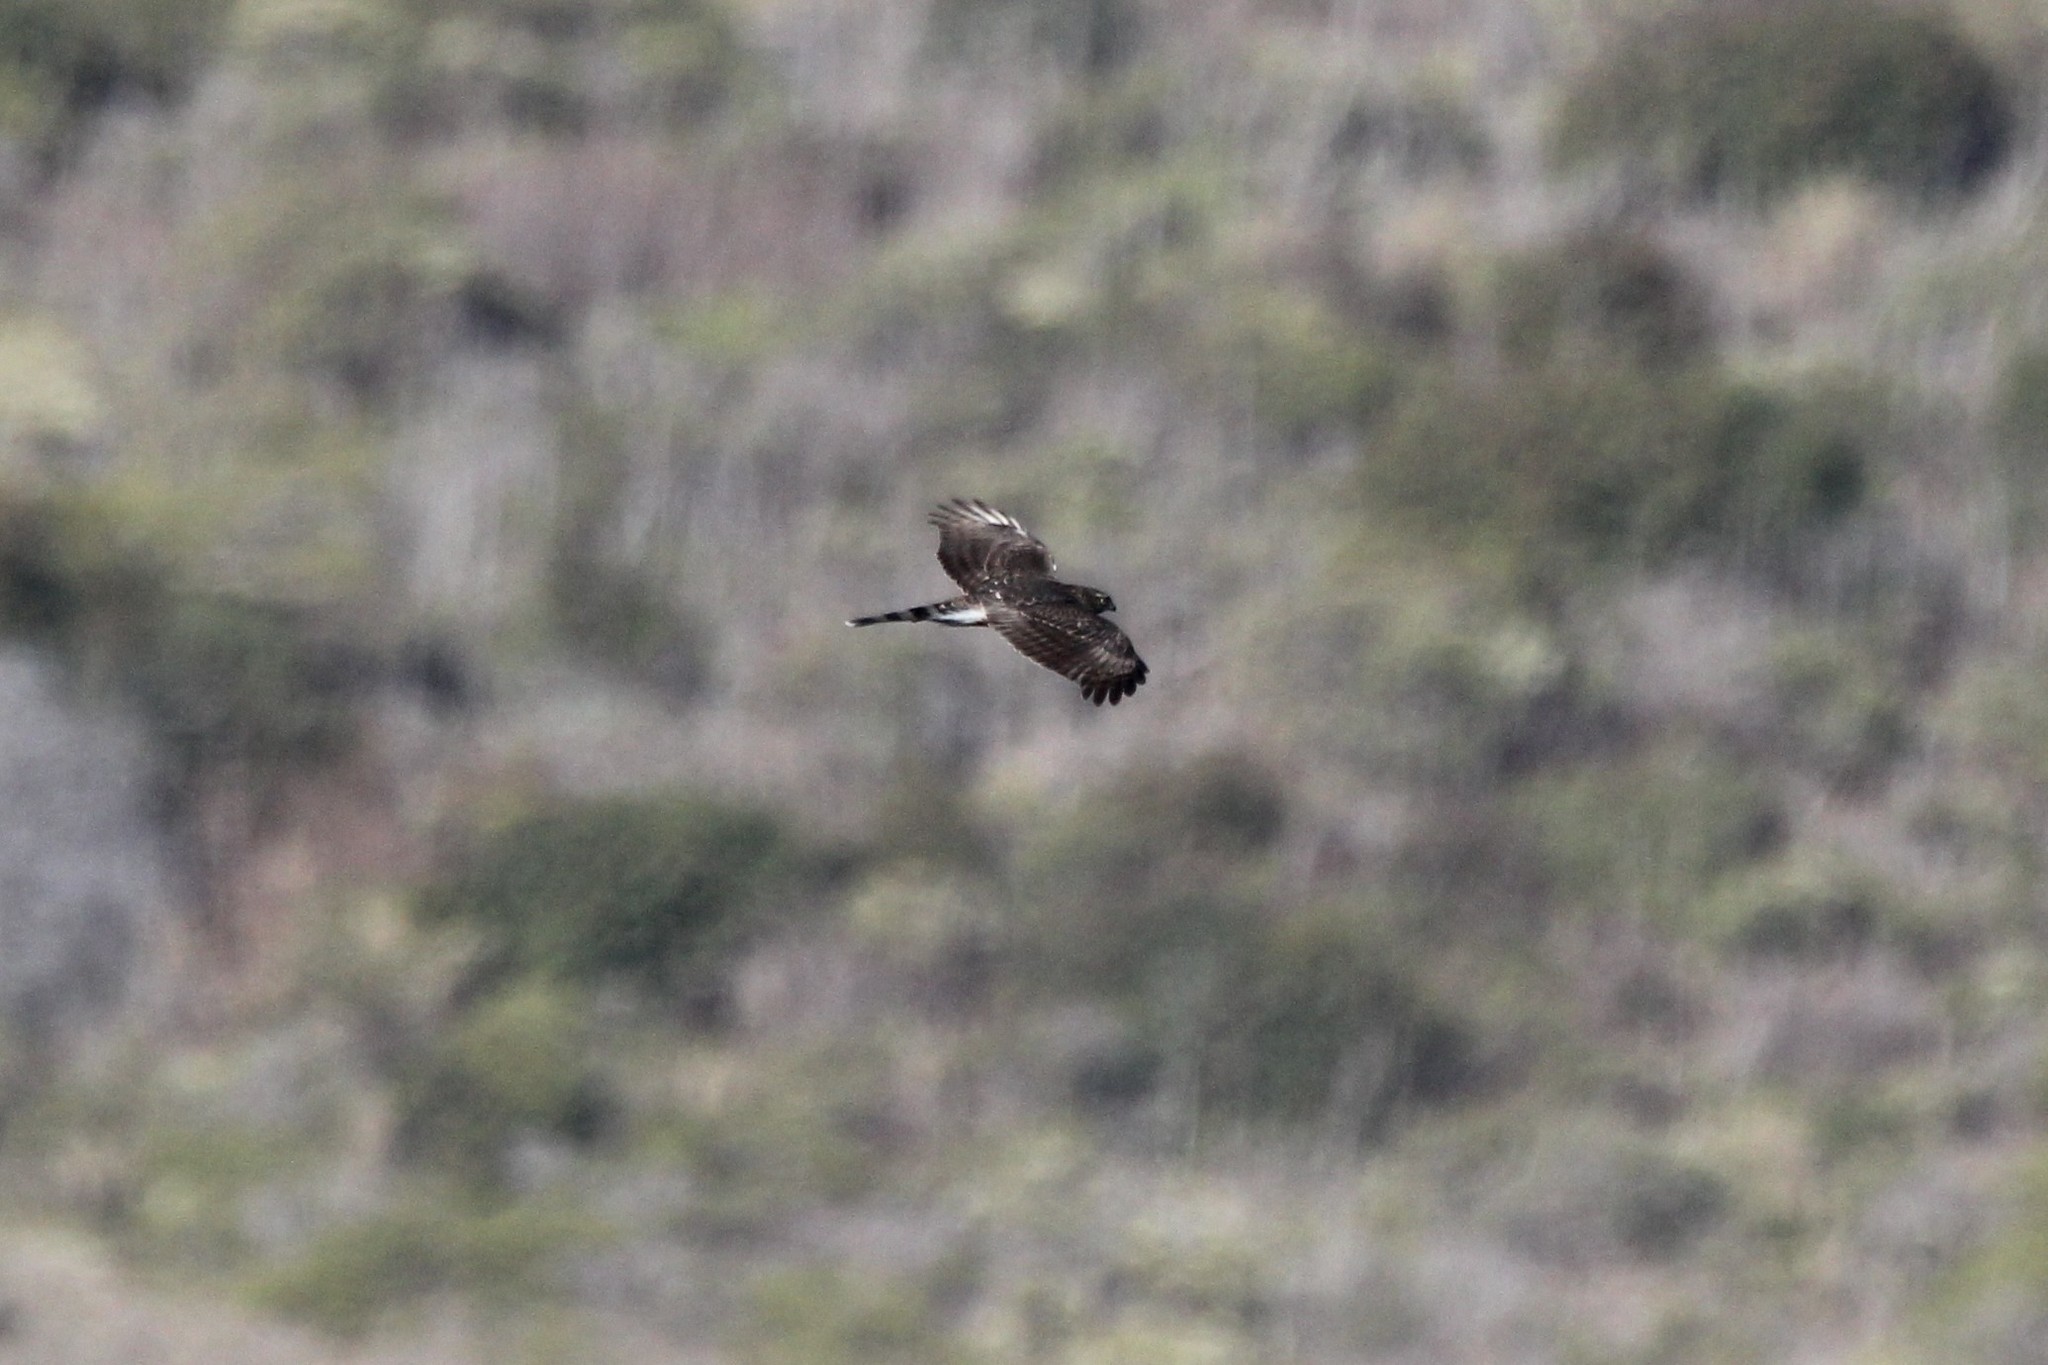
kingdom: Animalia
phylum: Chordata
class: Aves
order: Accipitriformes
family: Accipitridae
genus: Accipiter
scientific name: Accipiter cooperii
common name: Cooper's hawk
